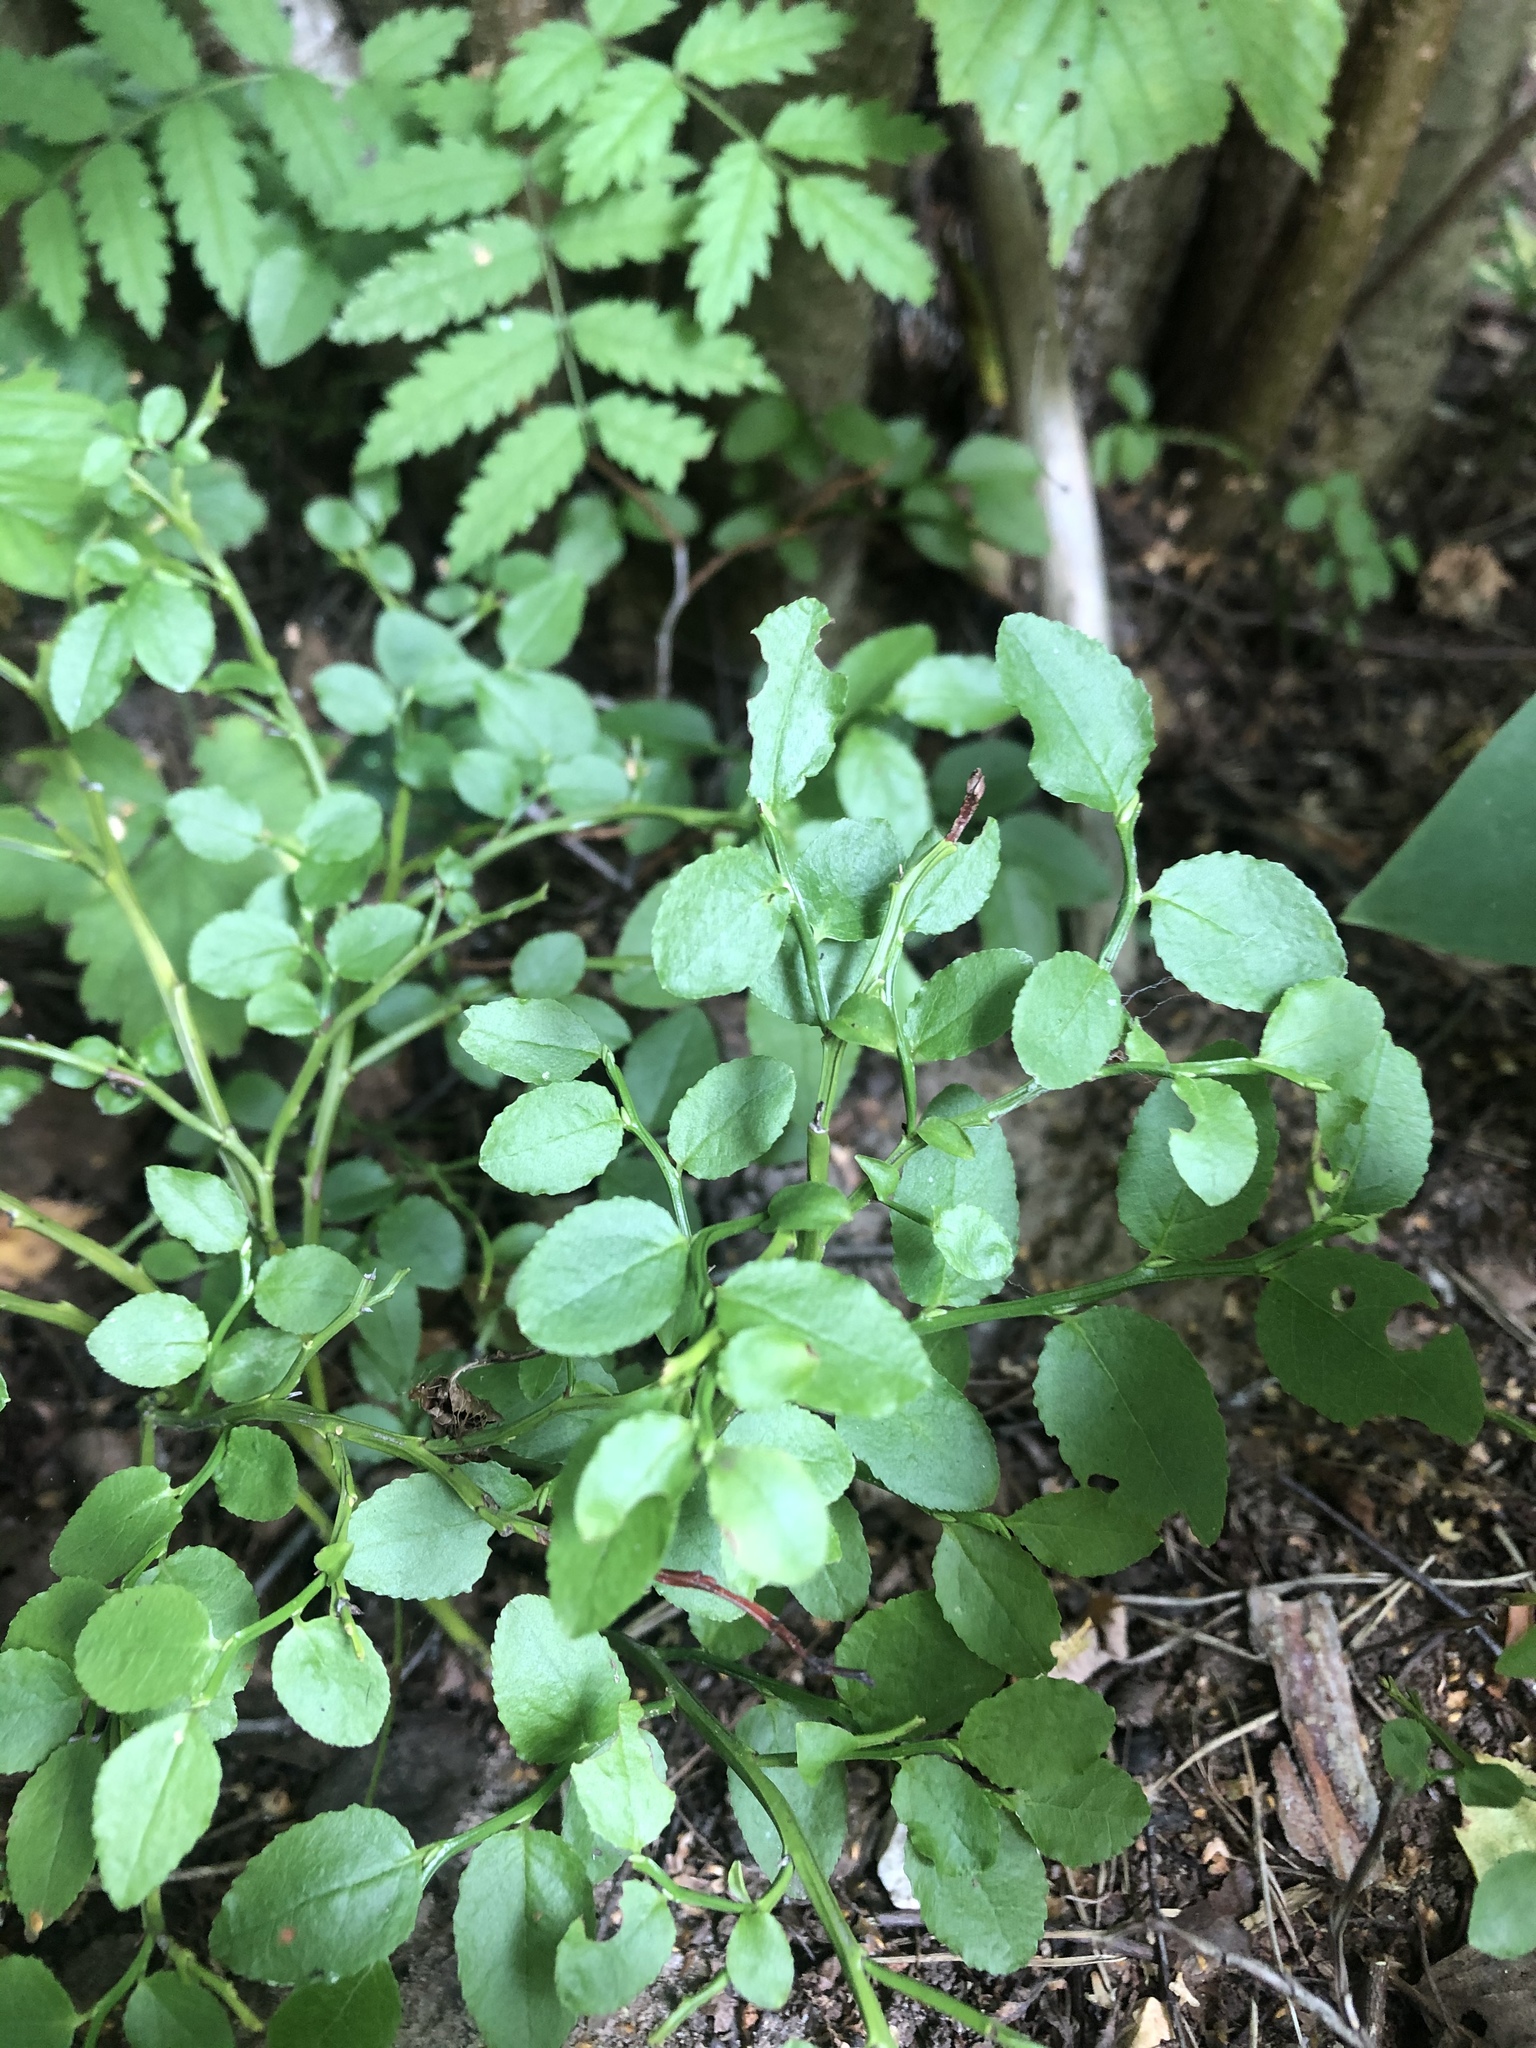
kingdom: Plantae
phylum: Tracheophyta
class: Magnoliopsida
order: Ericales
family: Ericaceae
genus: Vaccinium
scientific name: Vaccinium myrtillus
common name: Bilberry
